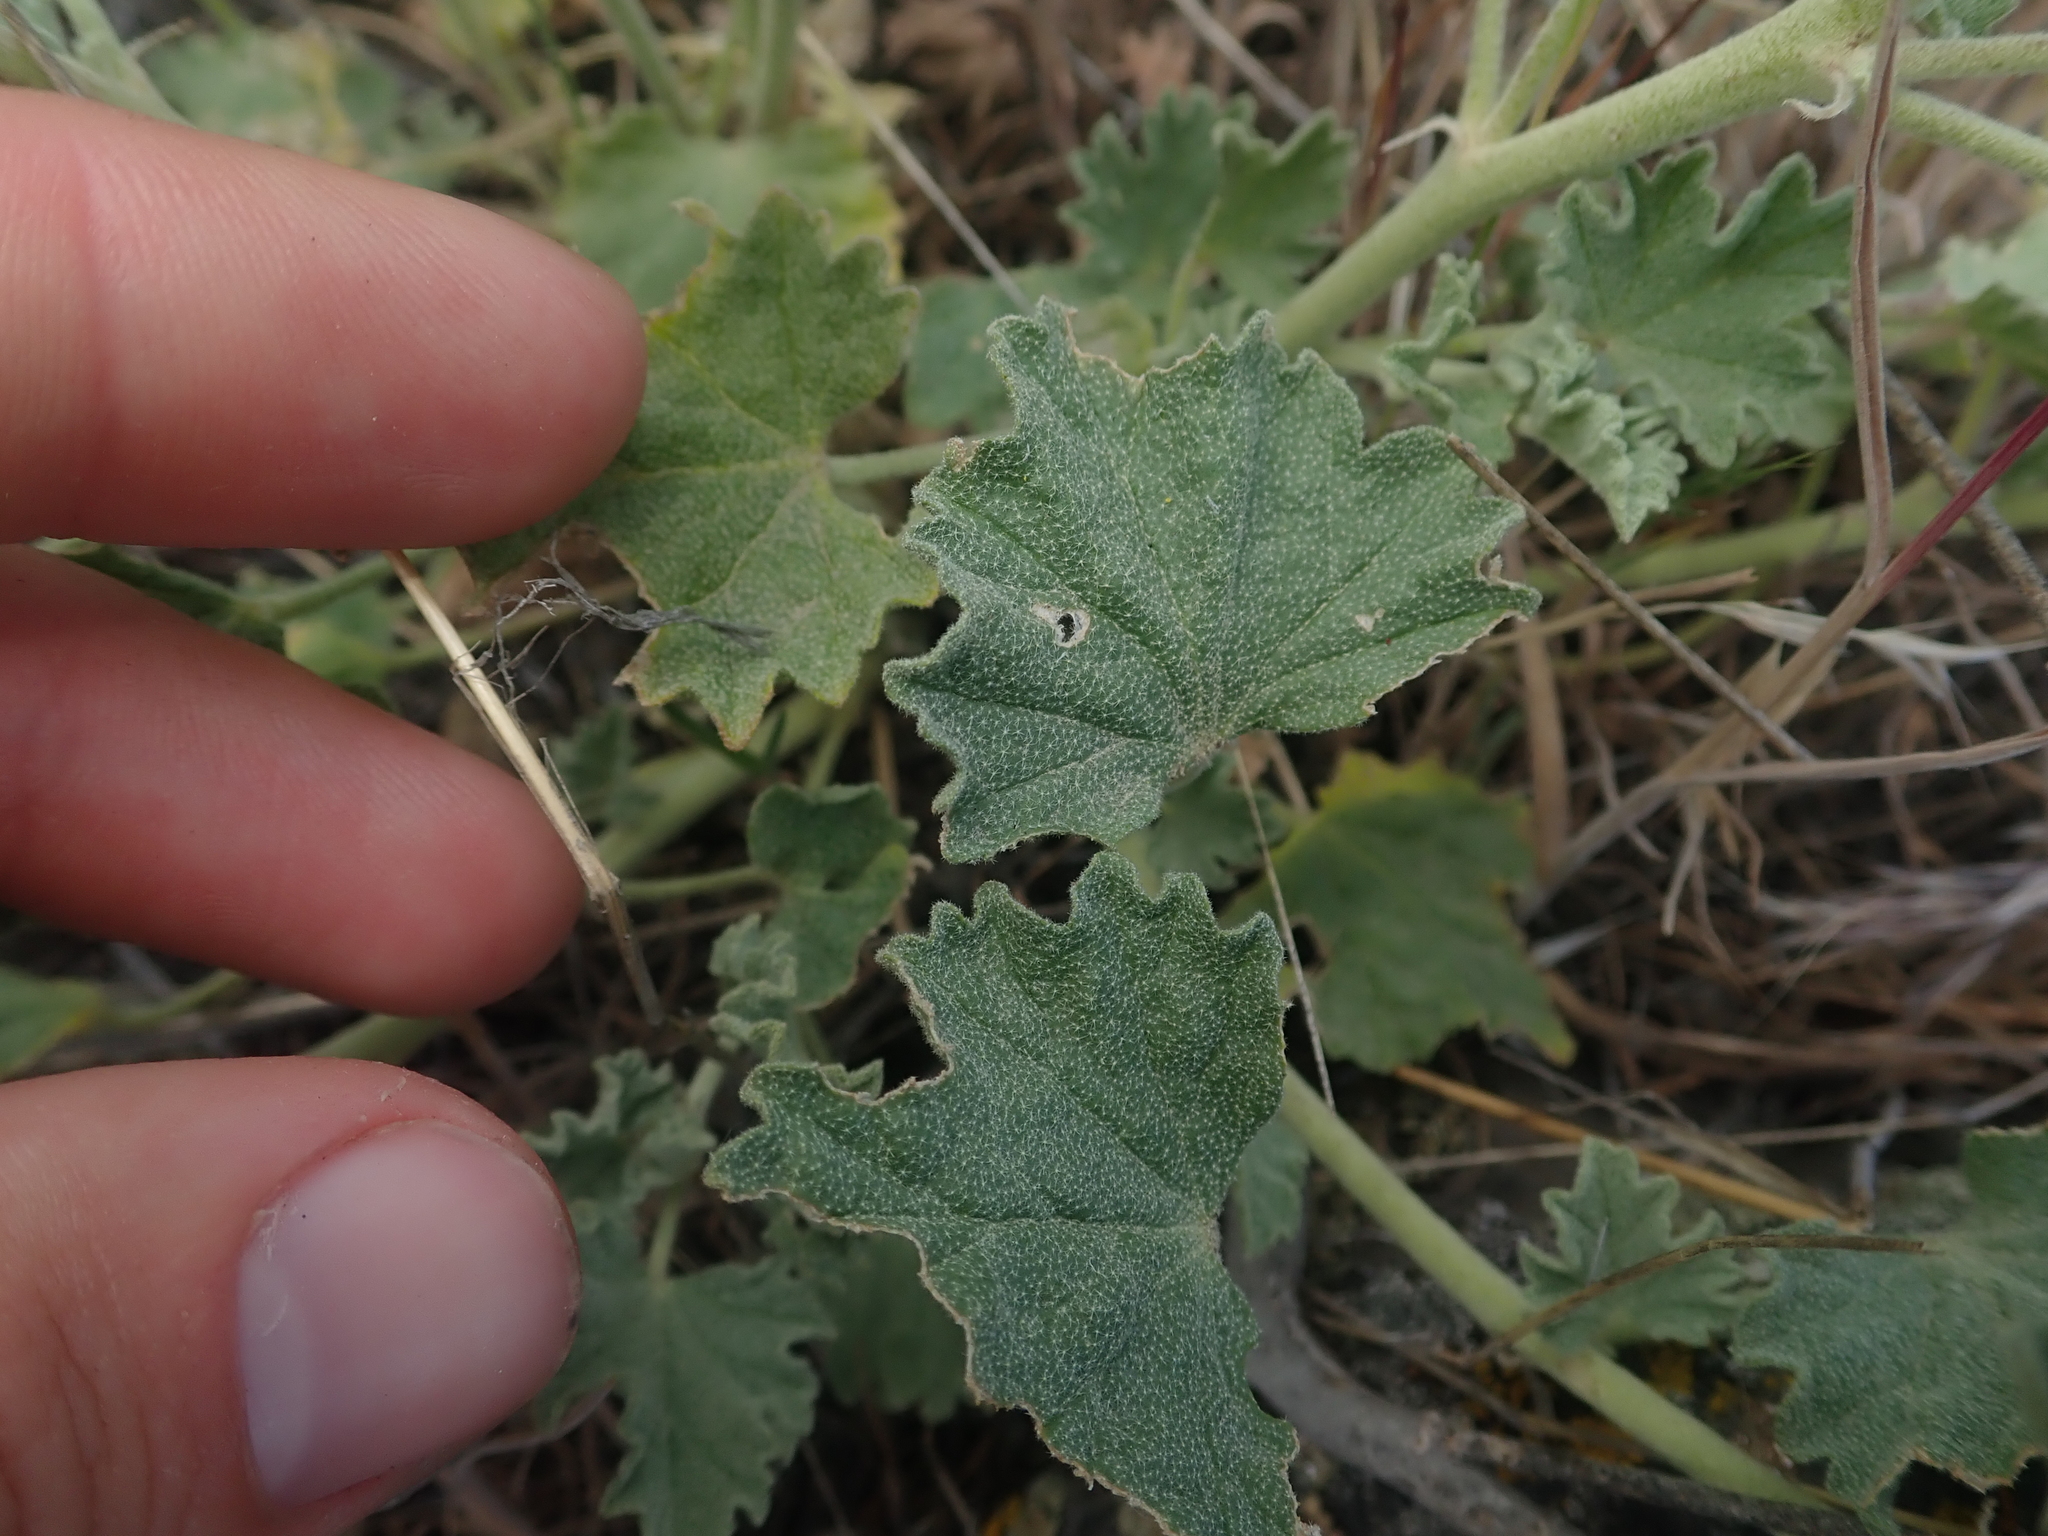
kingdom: Plantae
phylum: Tracheophyta
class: Magnoliopsida
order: Malvales
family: Malvaceae
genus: Sphaeralcea
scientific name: Sphaeralcea munroana
